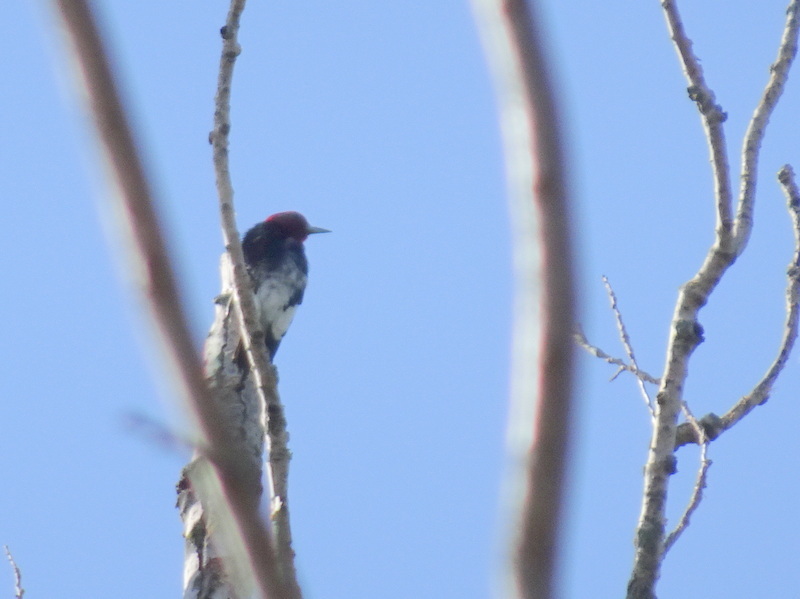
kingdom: Animalia
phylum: Chordata
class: Aves
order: Piciformes
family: Picidae
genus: Melanerpes
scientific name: Melanerpes erythrocephalus
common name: Red-headed woodpecker
